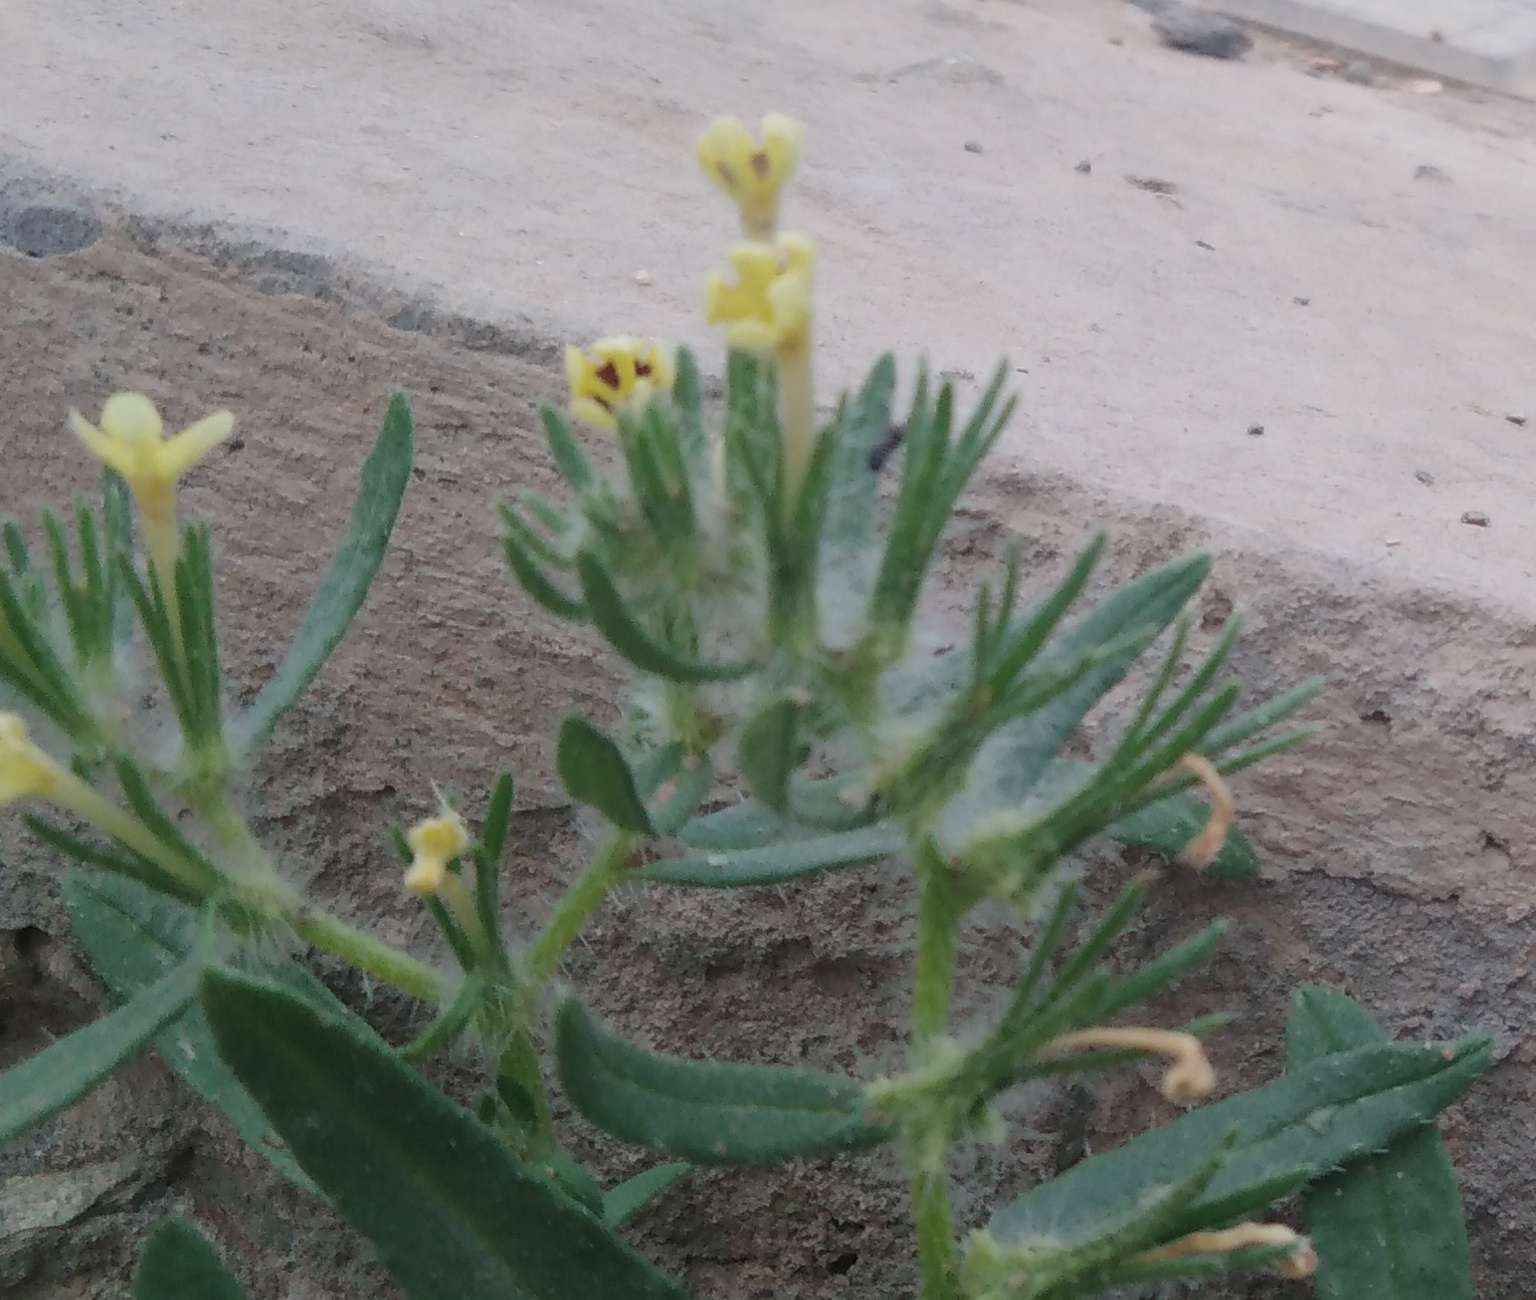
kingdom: Plantae
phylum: Tracheophyta
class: Magnoliopsida
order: Boraginales
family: Boraginaceae
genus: Arnebia
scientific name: Arnebia decumbens
